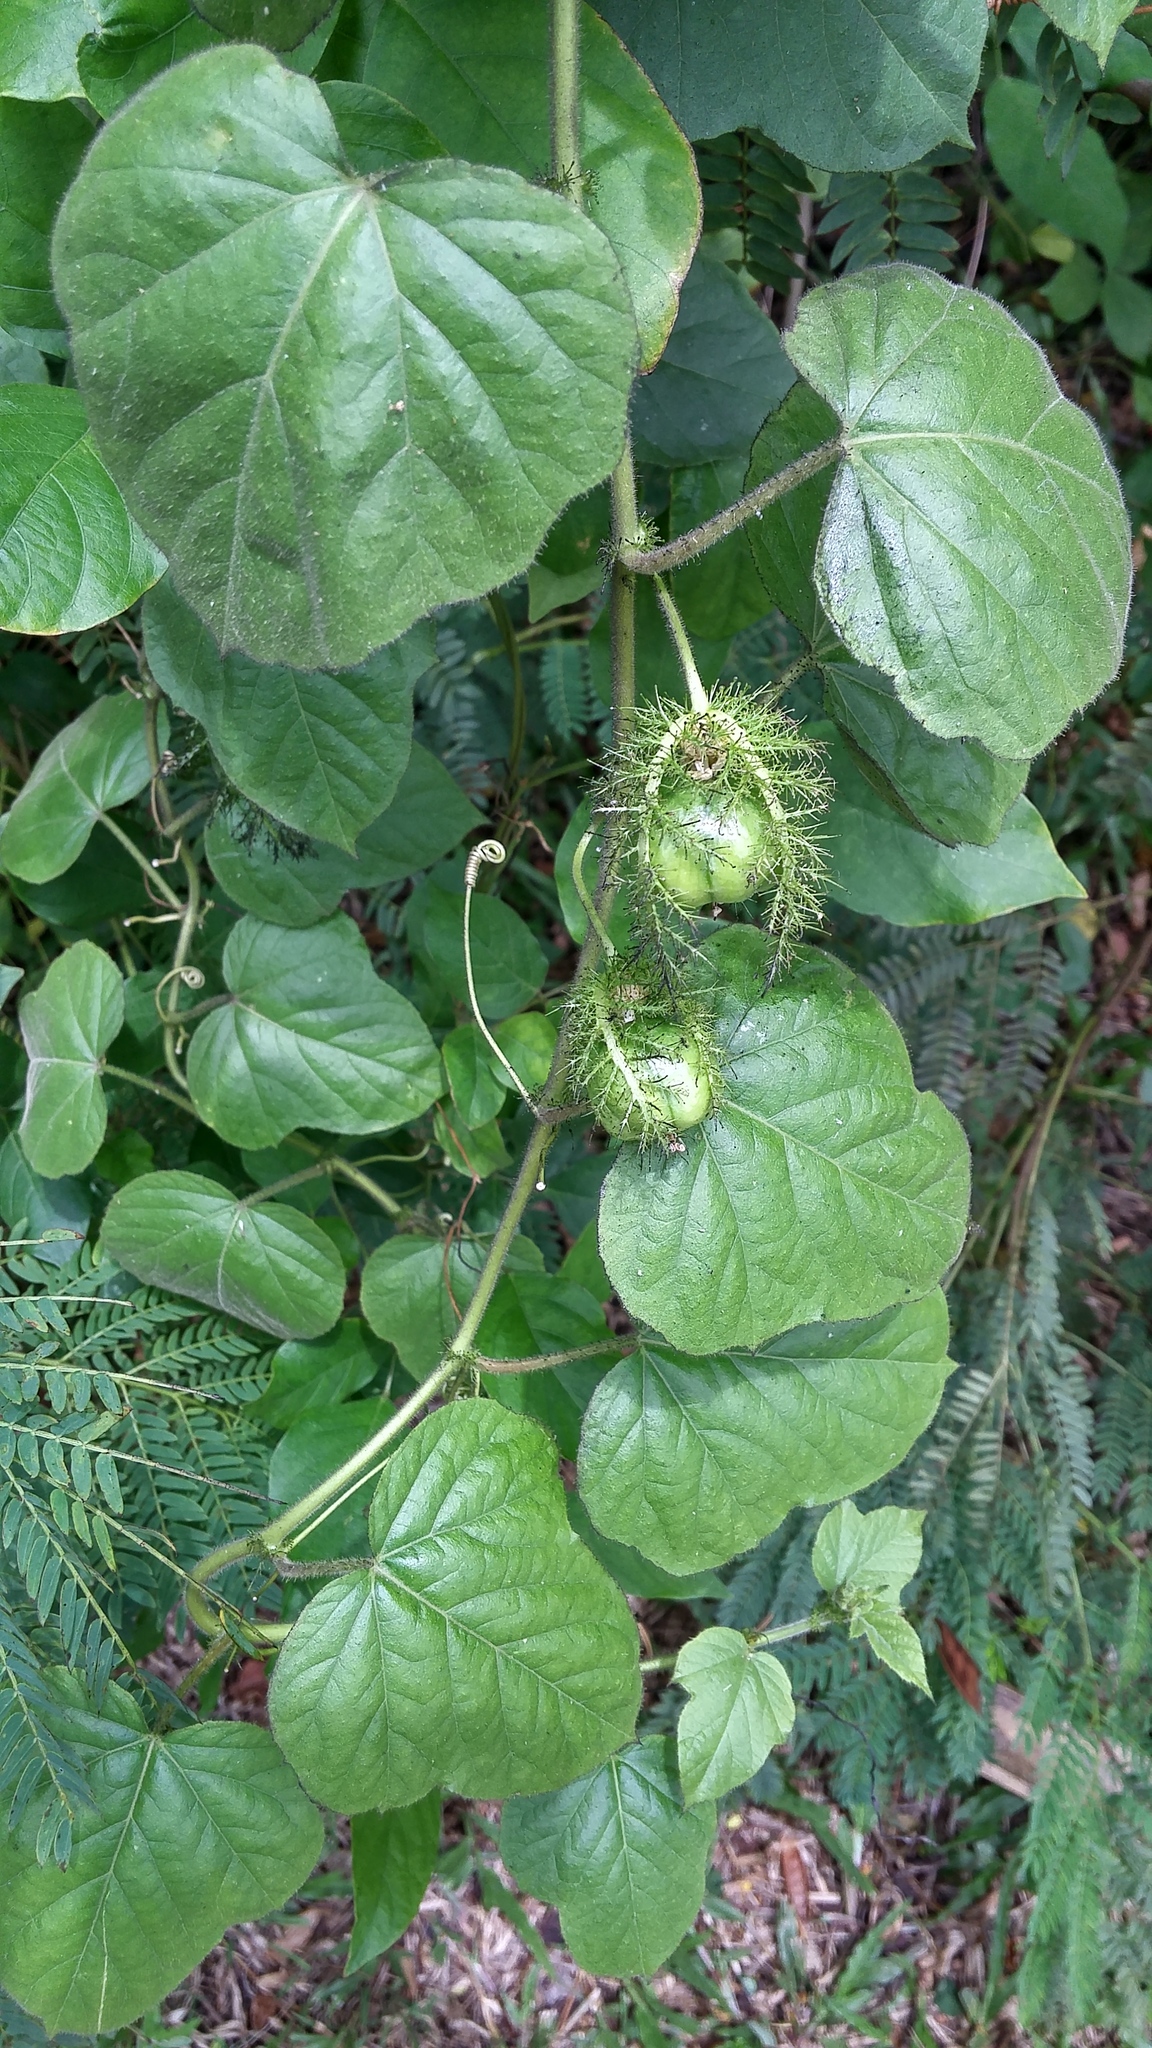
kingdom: Plantae
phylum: Tracheophyta
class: Magnoliopsida
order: Malpighiales
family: Passifloraceae
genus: Passiflora
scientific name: Passiflora foetida
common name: Fetid passionflower
